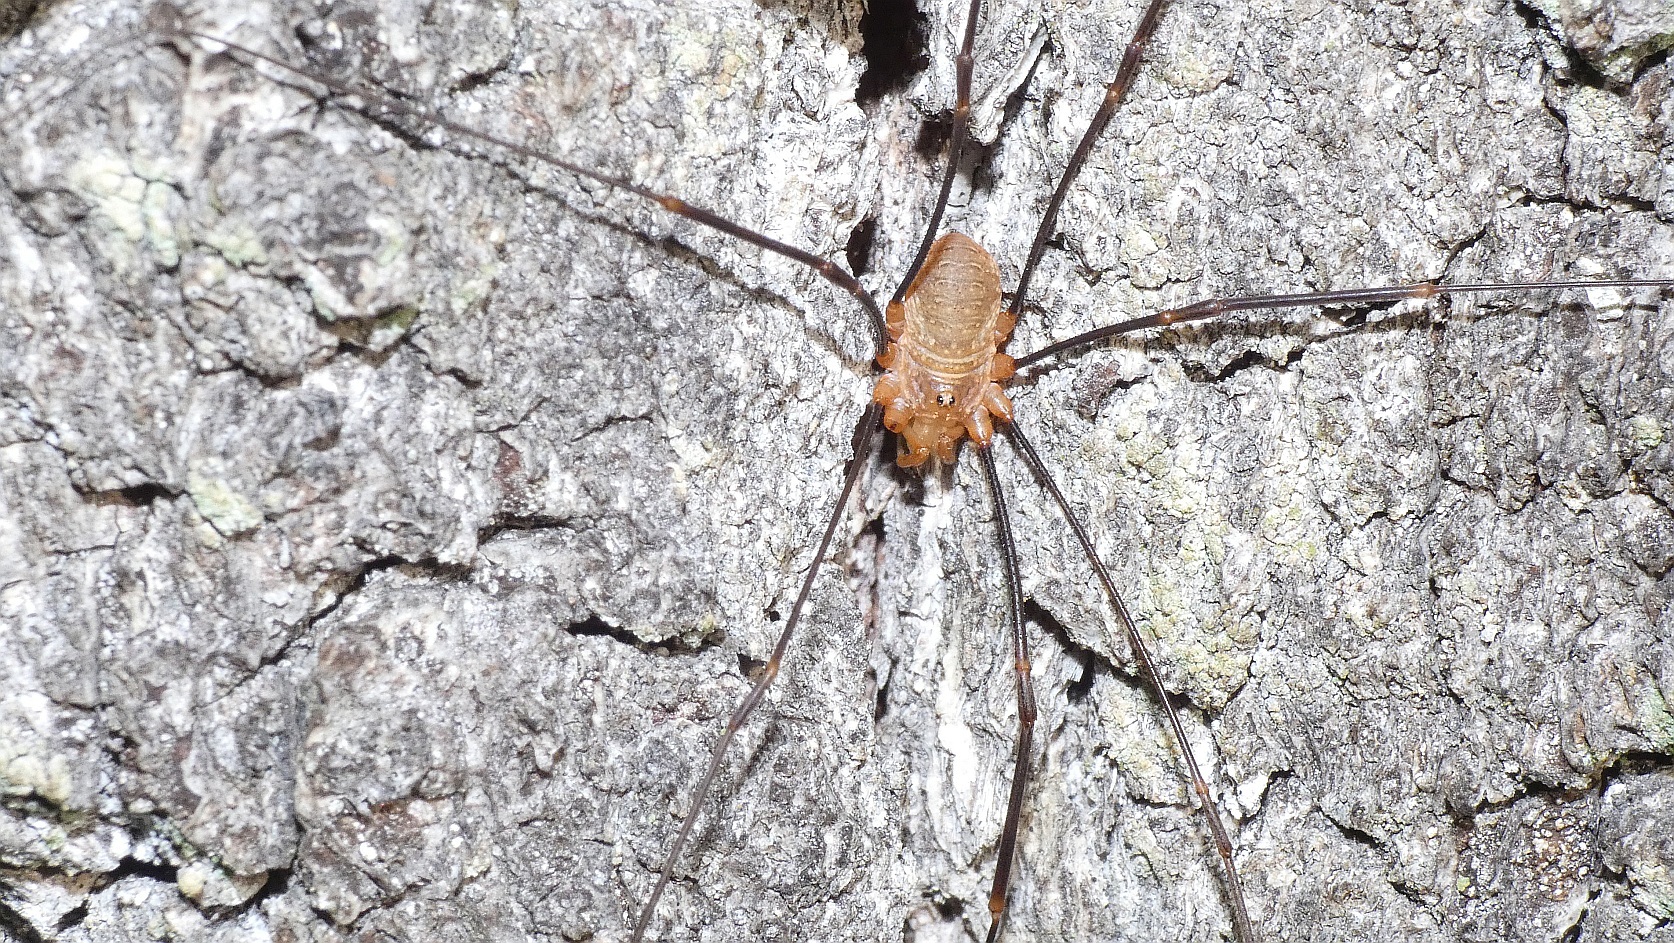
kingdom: Animalia
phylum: Arthropoda
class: Arachnida
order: Opiliones
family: Phalangiidae
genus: Opilio
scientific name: Opilio canestrinii
